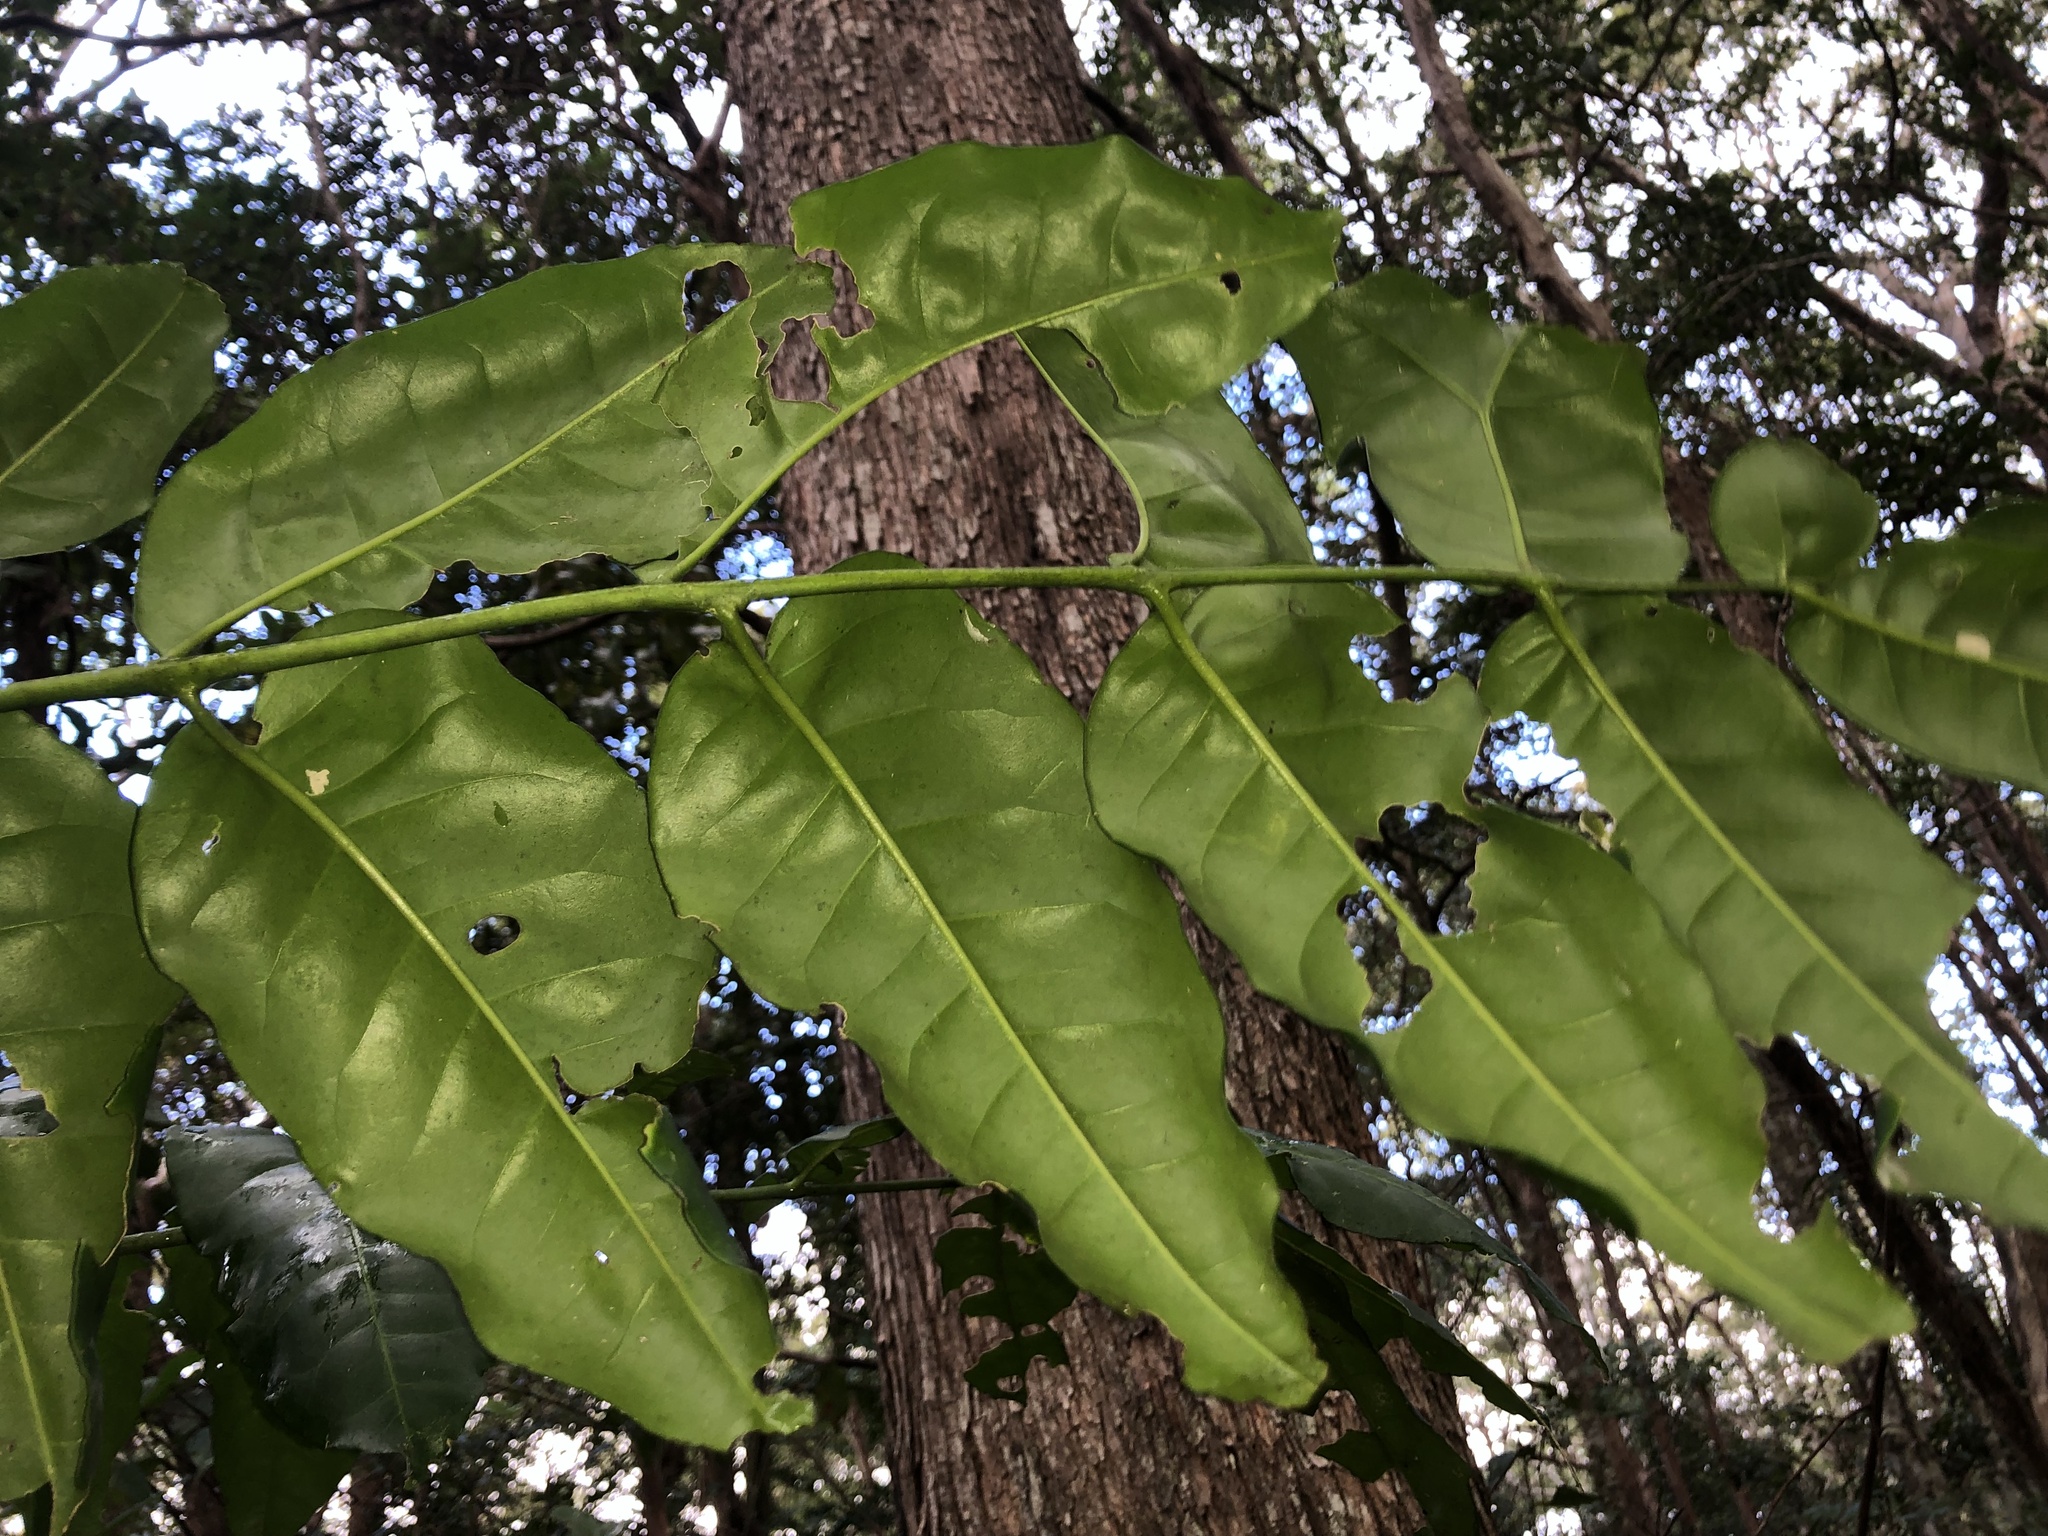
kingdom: Plantae
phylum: Tracheophyta
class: Magnoliopsida
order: Sapindales
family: Rutaceae
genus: Pentaceras
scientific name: Pentaceras australe
